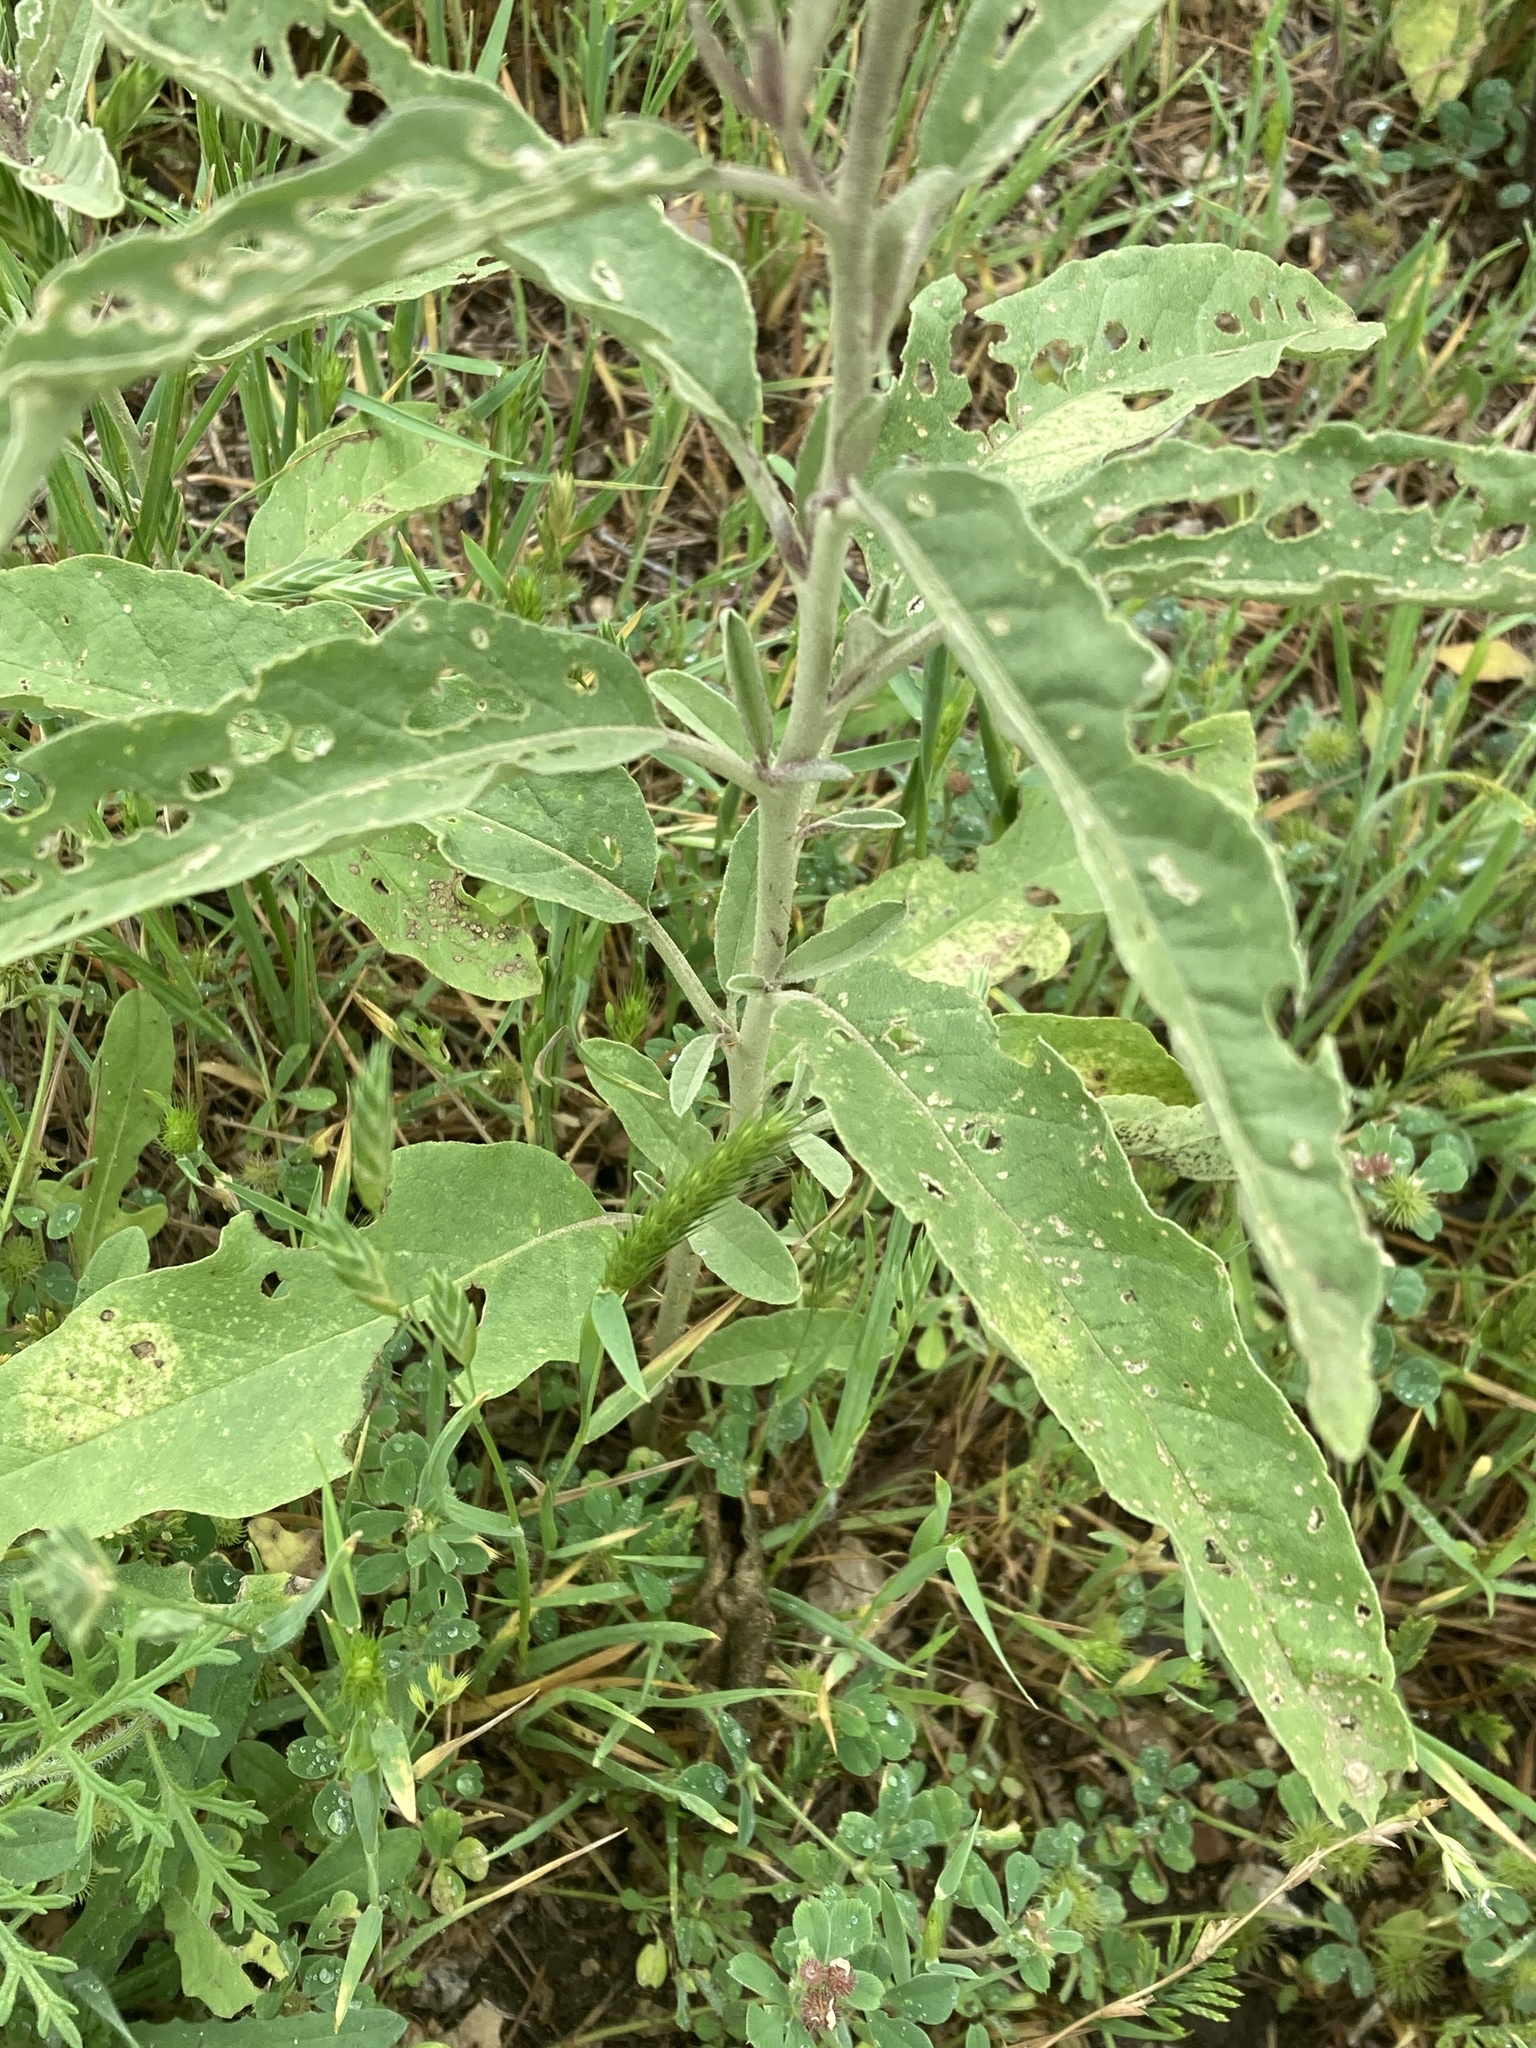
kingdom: Plantae
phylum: Tracheophyta
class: Magnoliopsida
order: Solanales
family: Solanaceae
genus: Solanum
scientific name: Solanum elaeagnifolium
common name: Silverleaf nightshade
